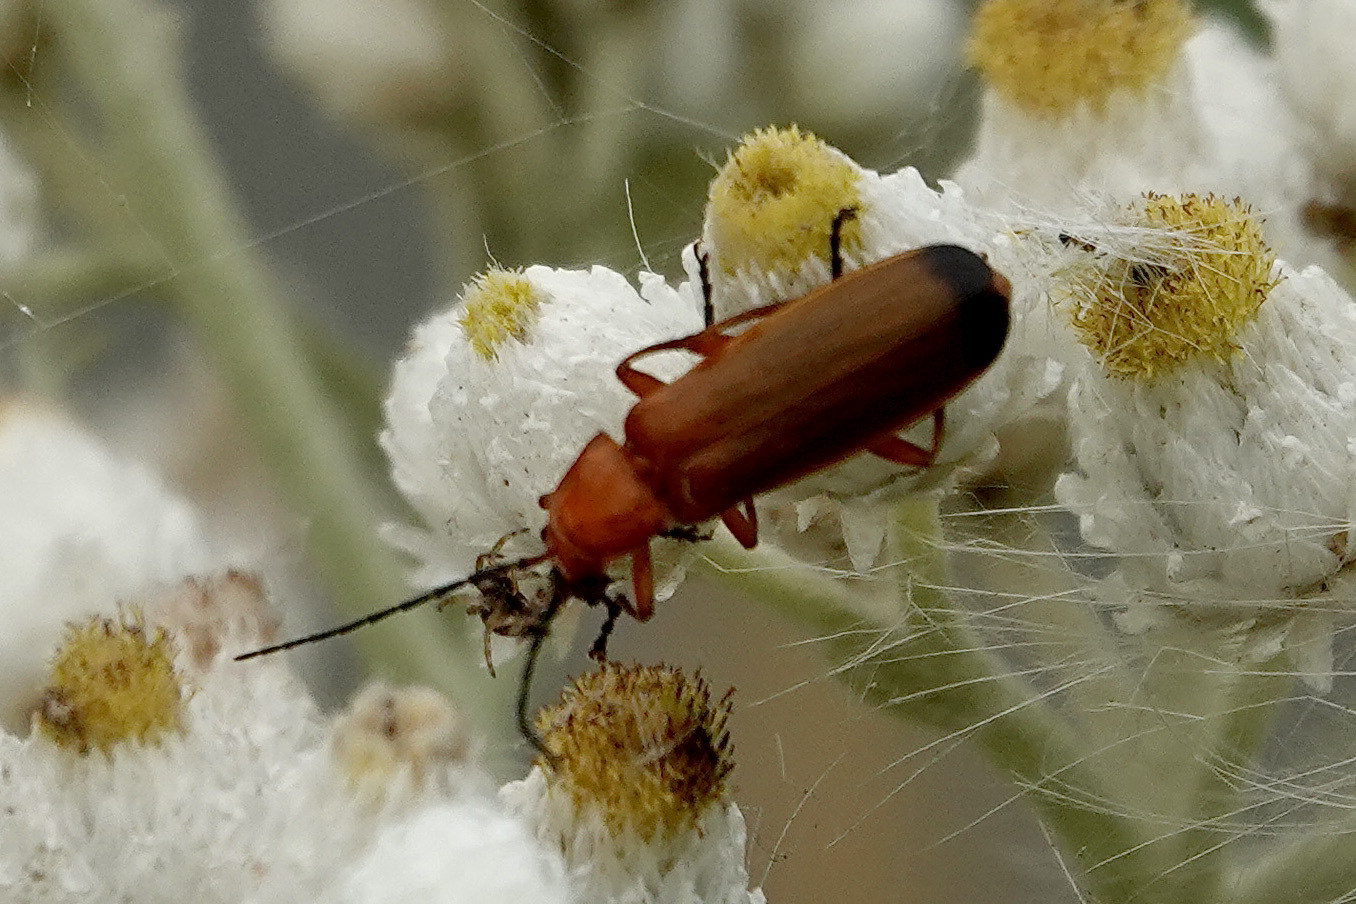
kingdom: Animalia
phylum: Arthropoda
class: Insecta
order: Coleoptera
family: Cantharidae
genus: Rhagonycha
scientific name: Rhagonycha fulva
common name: Common red soldier beetle
